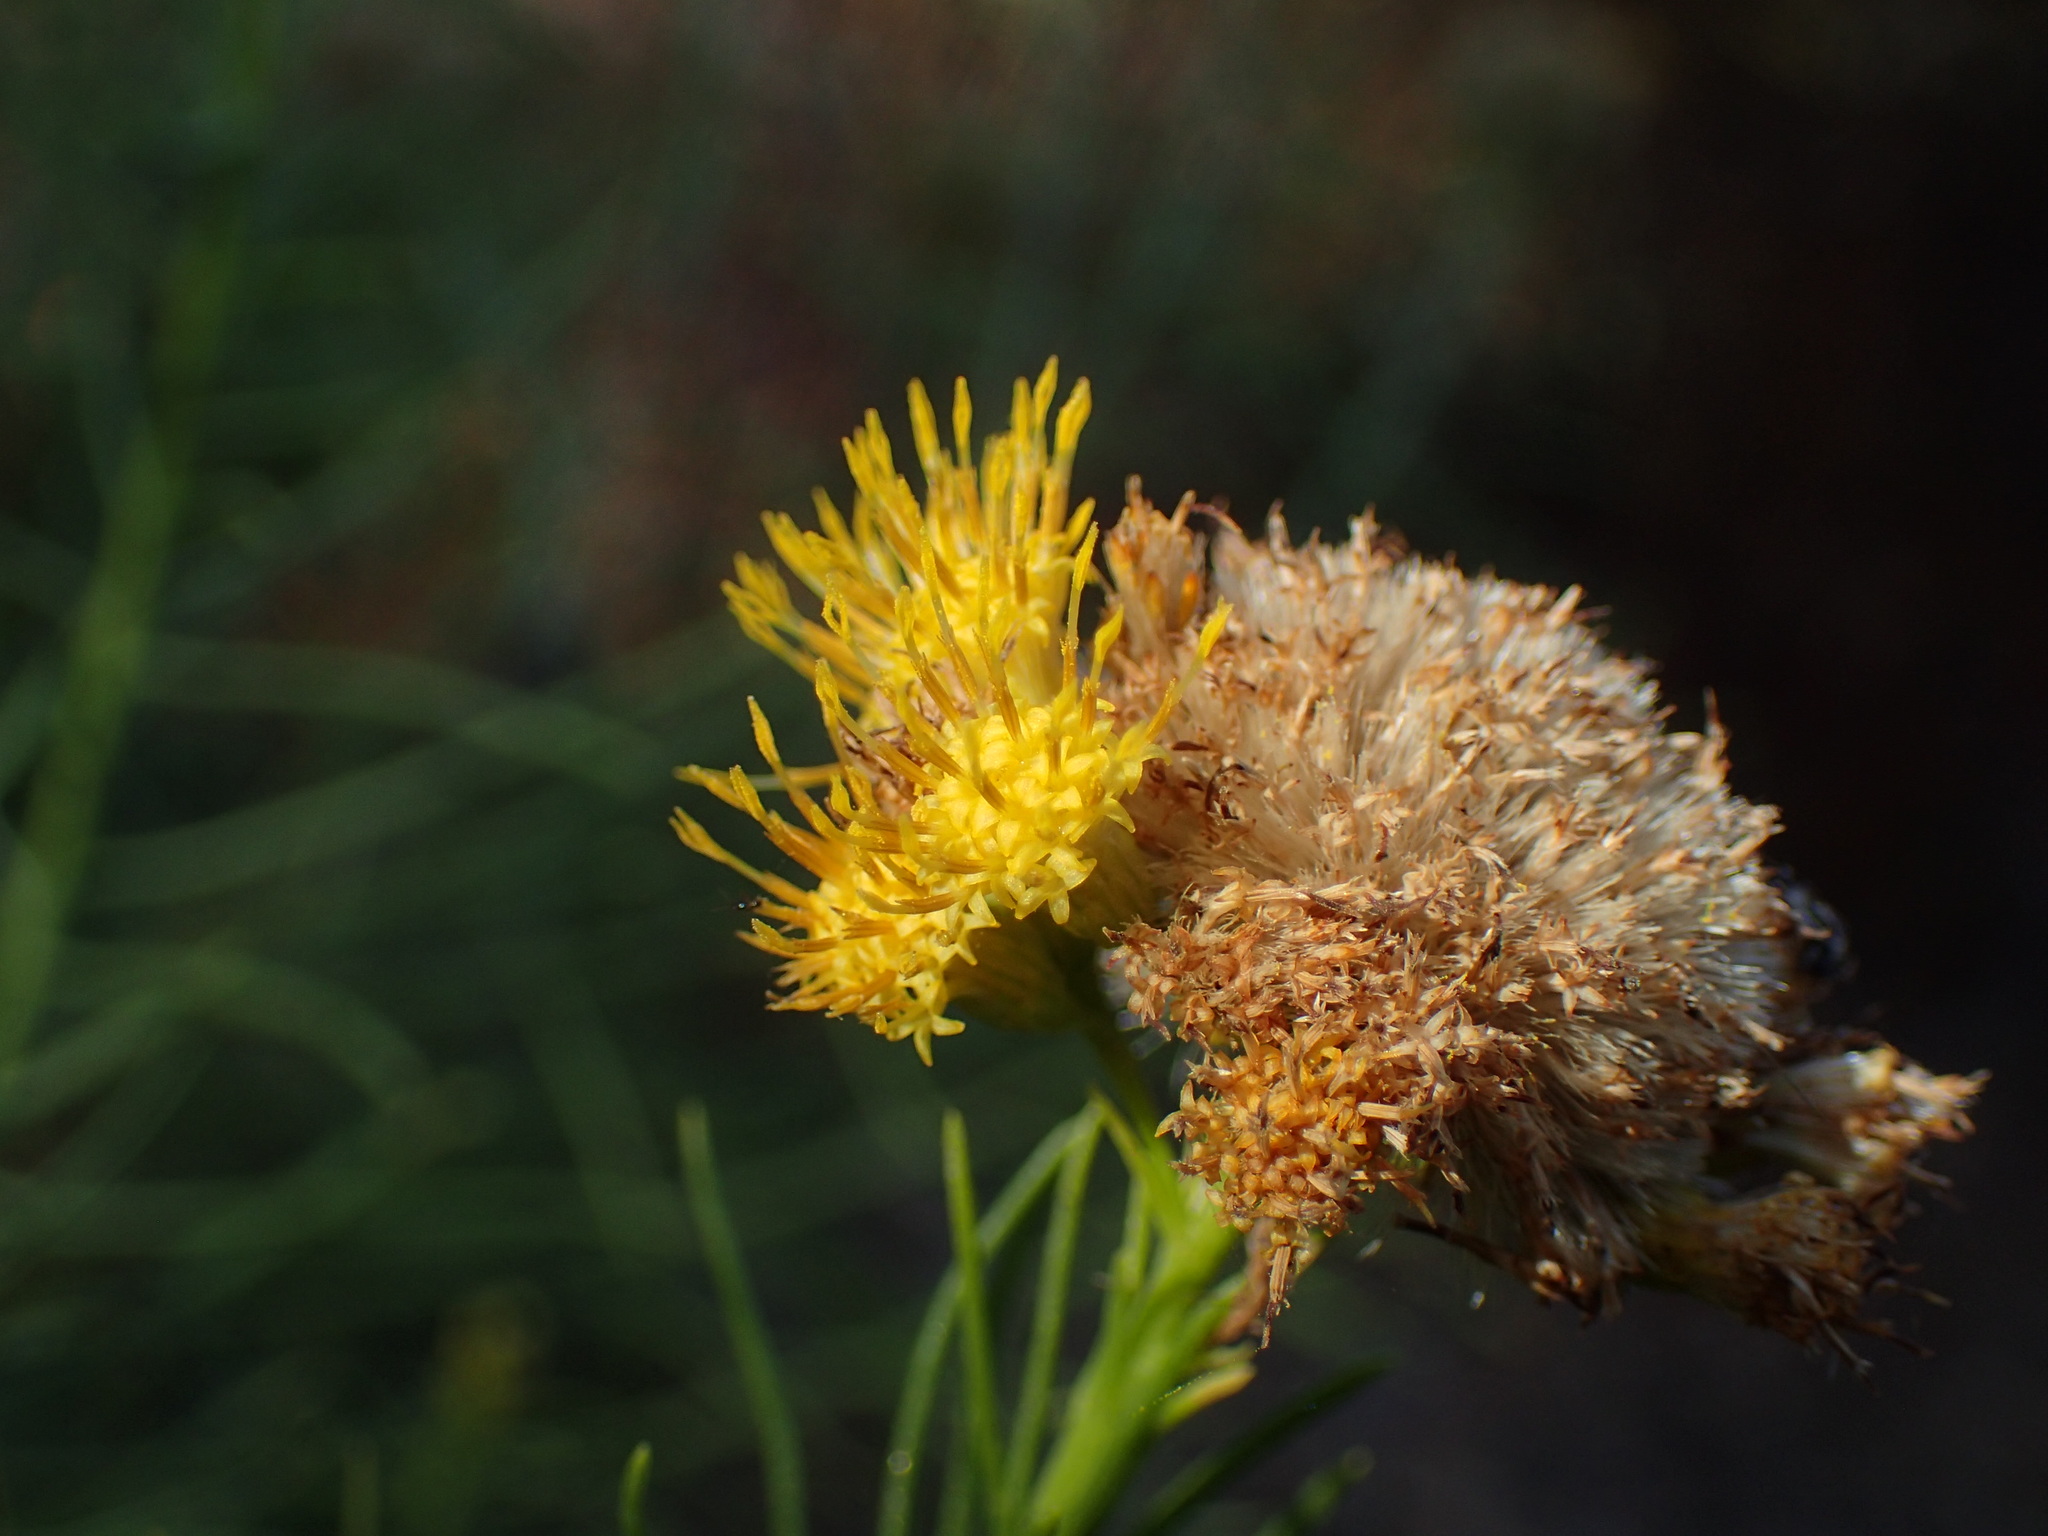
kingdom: Plantae
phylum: Tracheophyta
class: Magnoliopsida
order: Asterales
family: Asteraceae
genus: Ericameria
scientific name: Ericameria arborescens
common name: Goldenfleece
